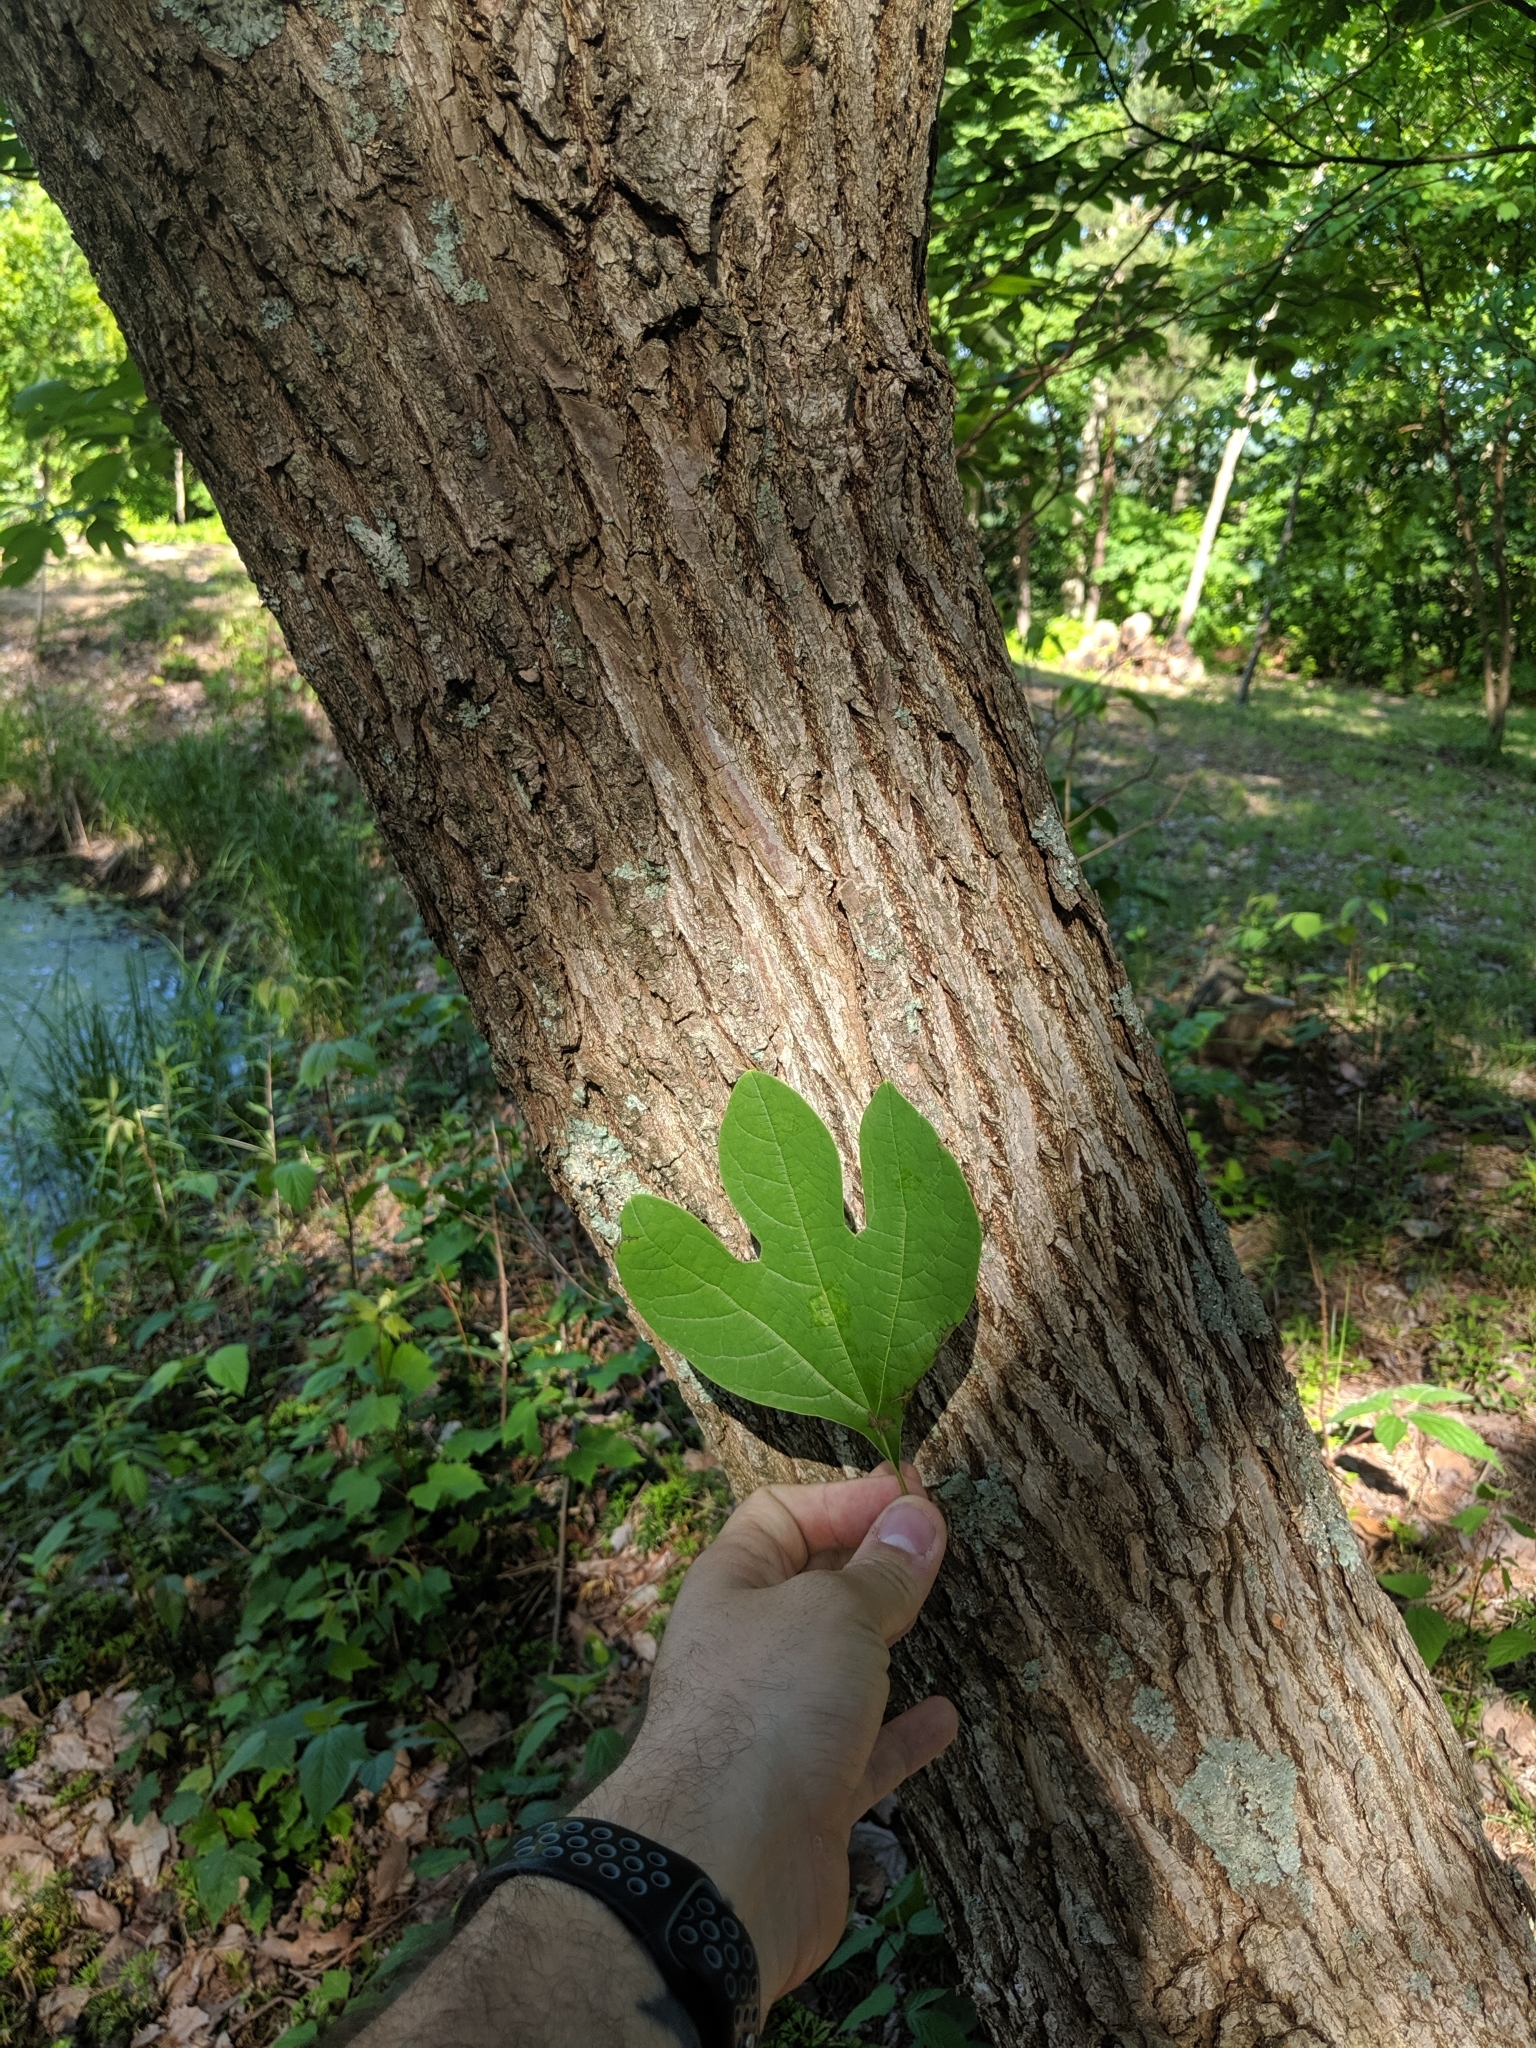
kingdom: Plantae
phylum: Tracheophyta
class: Magnoliopsida
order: Laurales
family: Lauraceae
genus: Sassafras
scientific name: Sassafras albidum
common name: Sassafras
